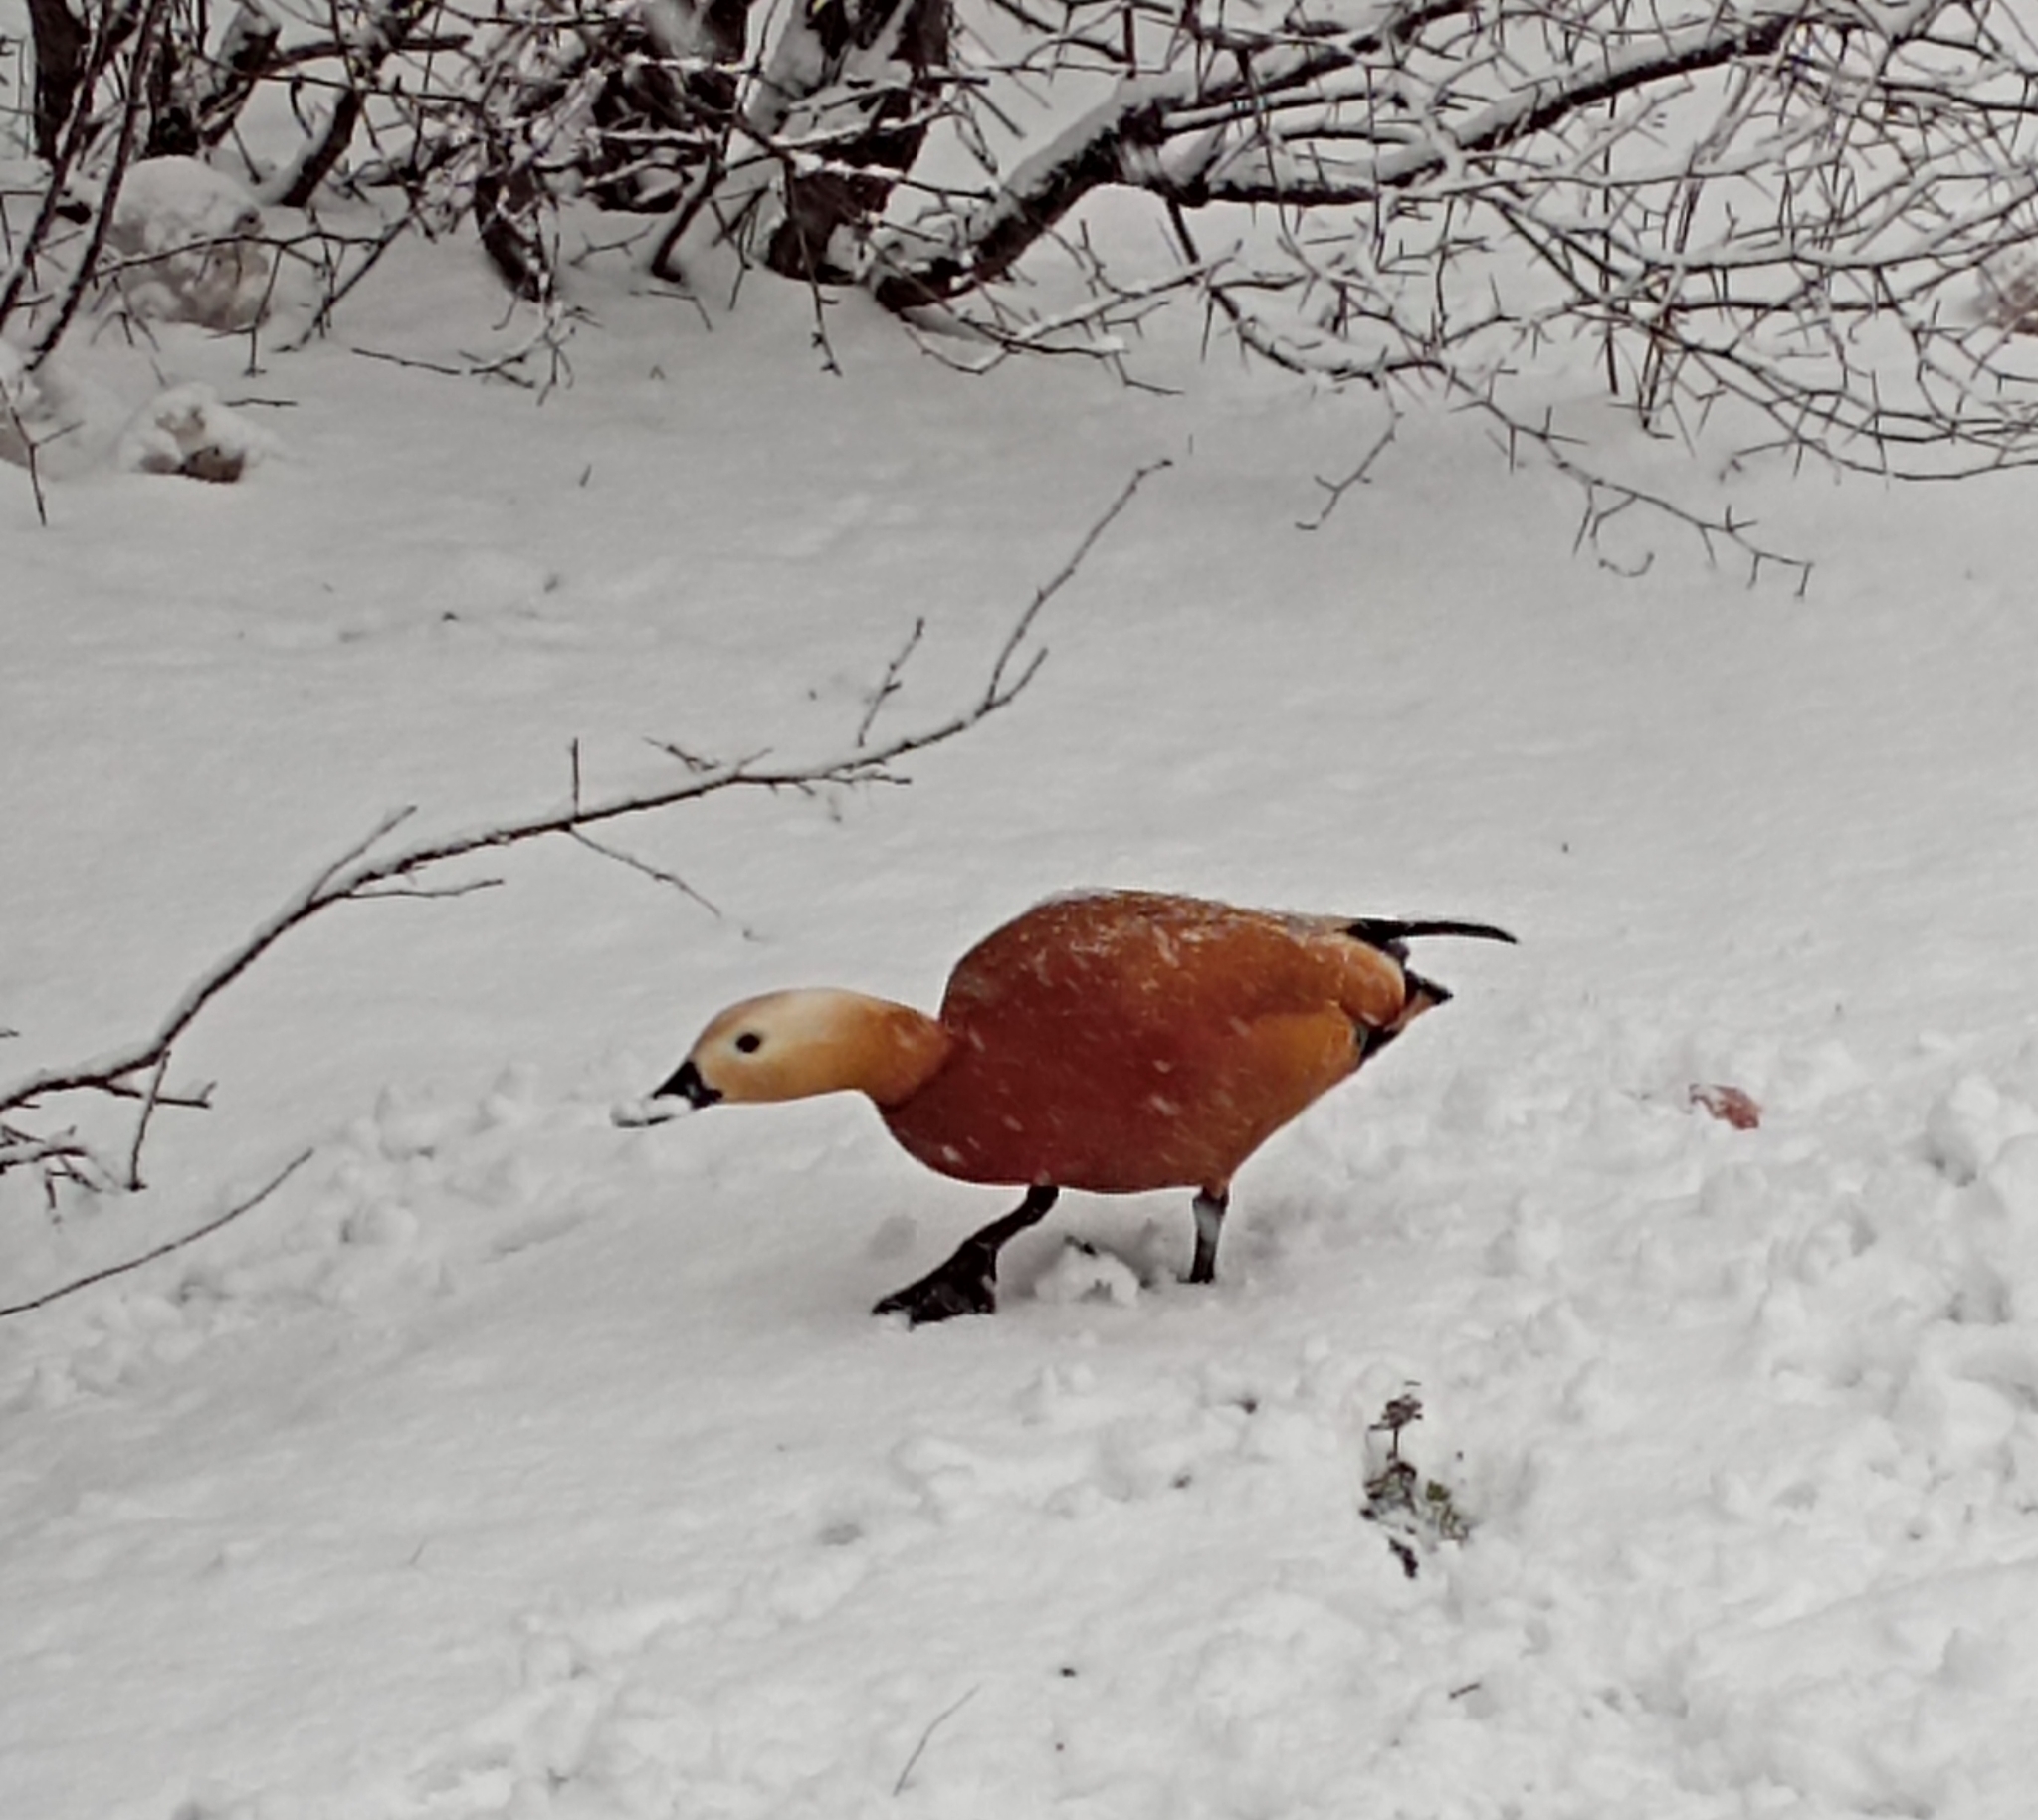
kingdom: Animalia
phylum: Chordata
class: Aves
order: Anseriformes
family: Anatidae
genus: Tadorna
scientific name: Tadorna ferruginea
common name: Ruddy shelduck
